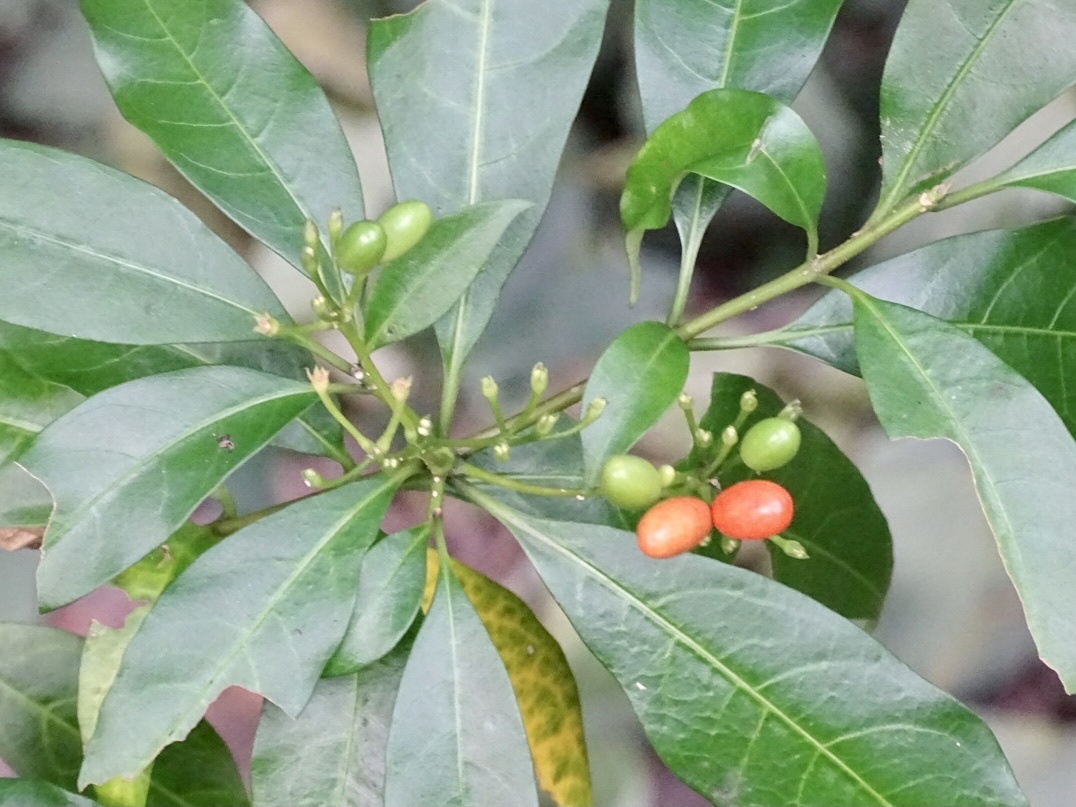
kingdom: Plantae
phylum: Tracheophyta
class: Magnoliopsida
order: Gentianales
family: Apocynaceae
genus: Rauvolfia
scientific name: Rauvolfia verticillata
